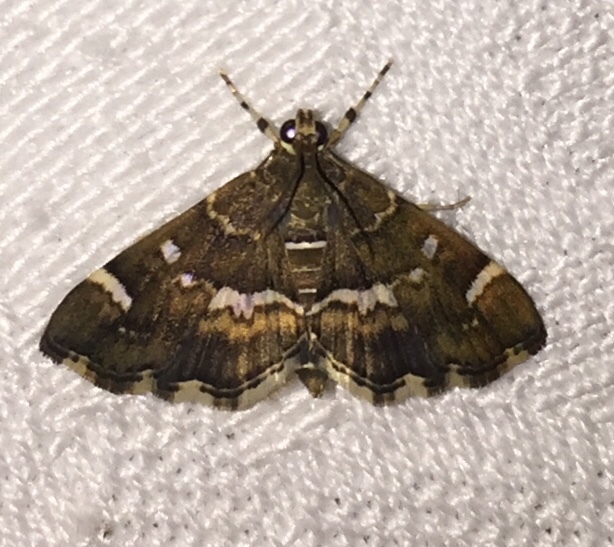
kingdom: Animalia
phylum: Arthropoda
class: Insecta
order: Lepidoptera
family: Crambidae
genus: Hymenia
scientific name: Hymenia perspectalis
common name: Spotted beet webworm
